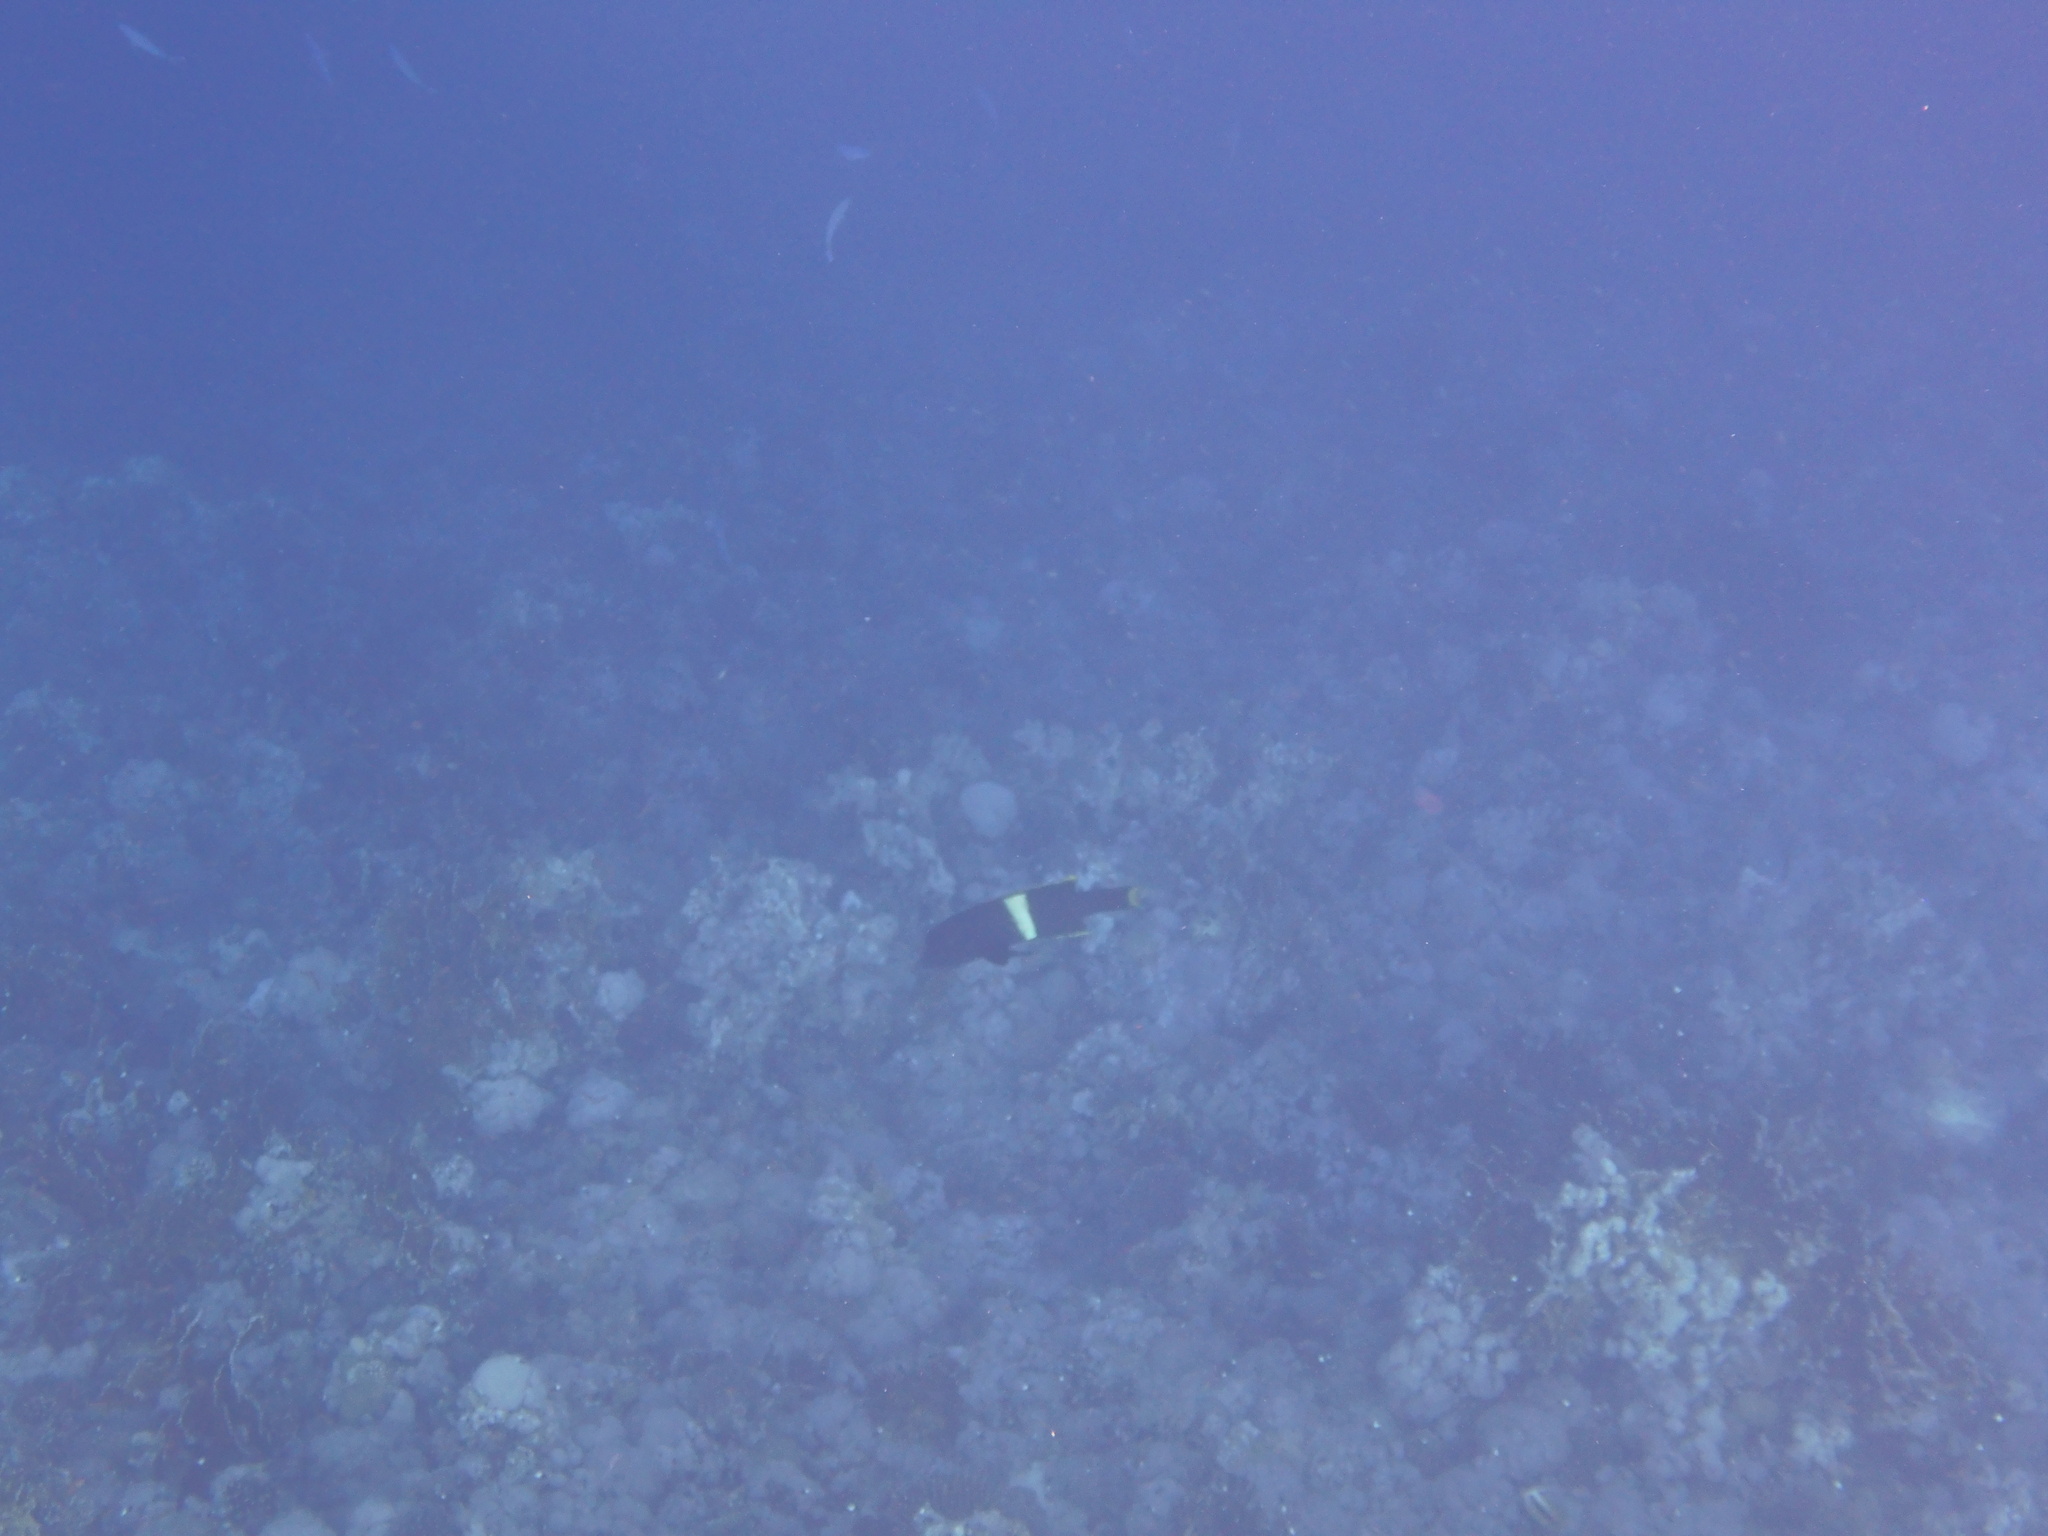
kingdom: Animalia
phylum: Chordata
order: Perciformes
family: Labridae
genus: Coris
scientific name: Coris aygula
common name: Clown coris
